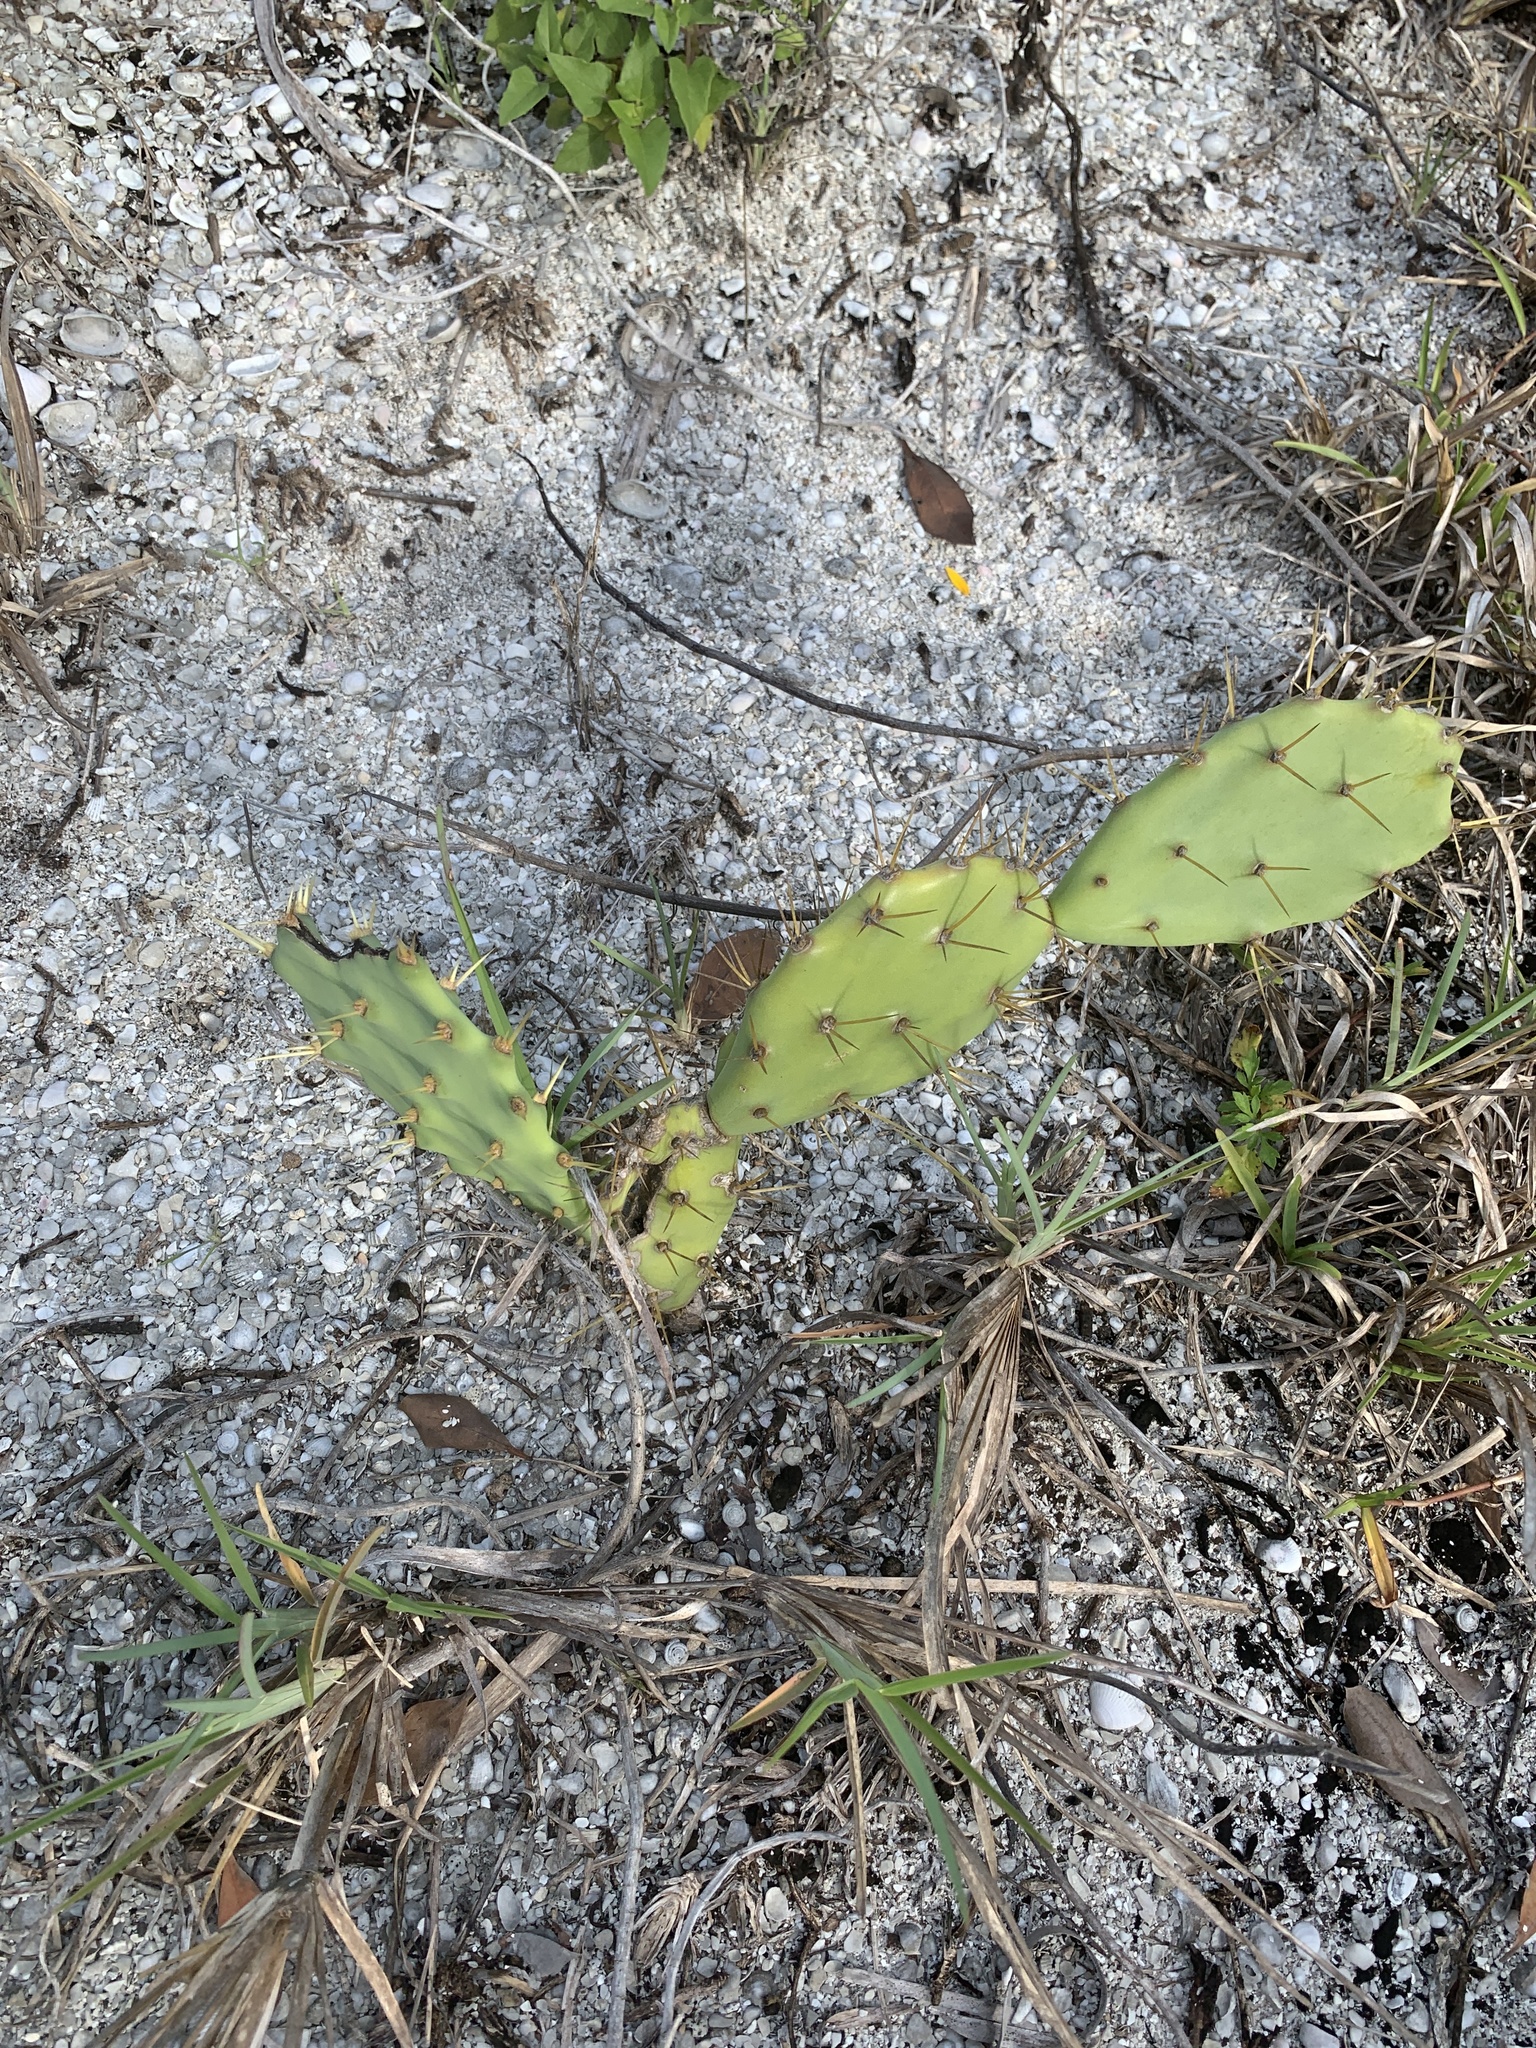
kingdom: Plantae
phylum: Tracheophyta
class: Magnoliopsida
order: Caryophyllales
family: Cactaceae
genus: Opuntia
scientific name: Opuntia stricta
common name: Erect pricklypear
